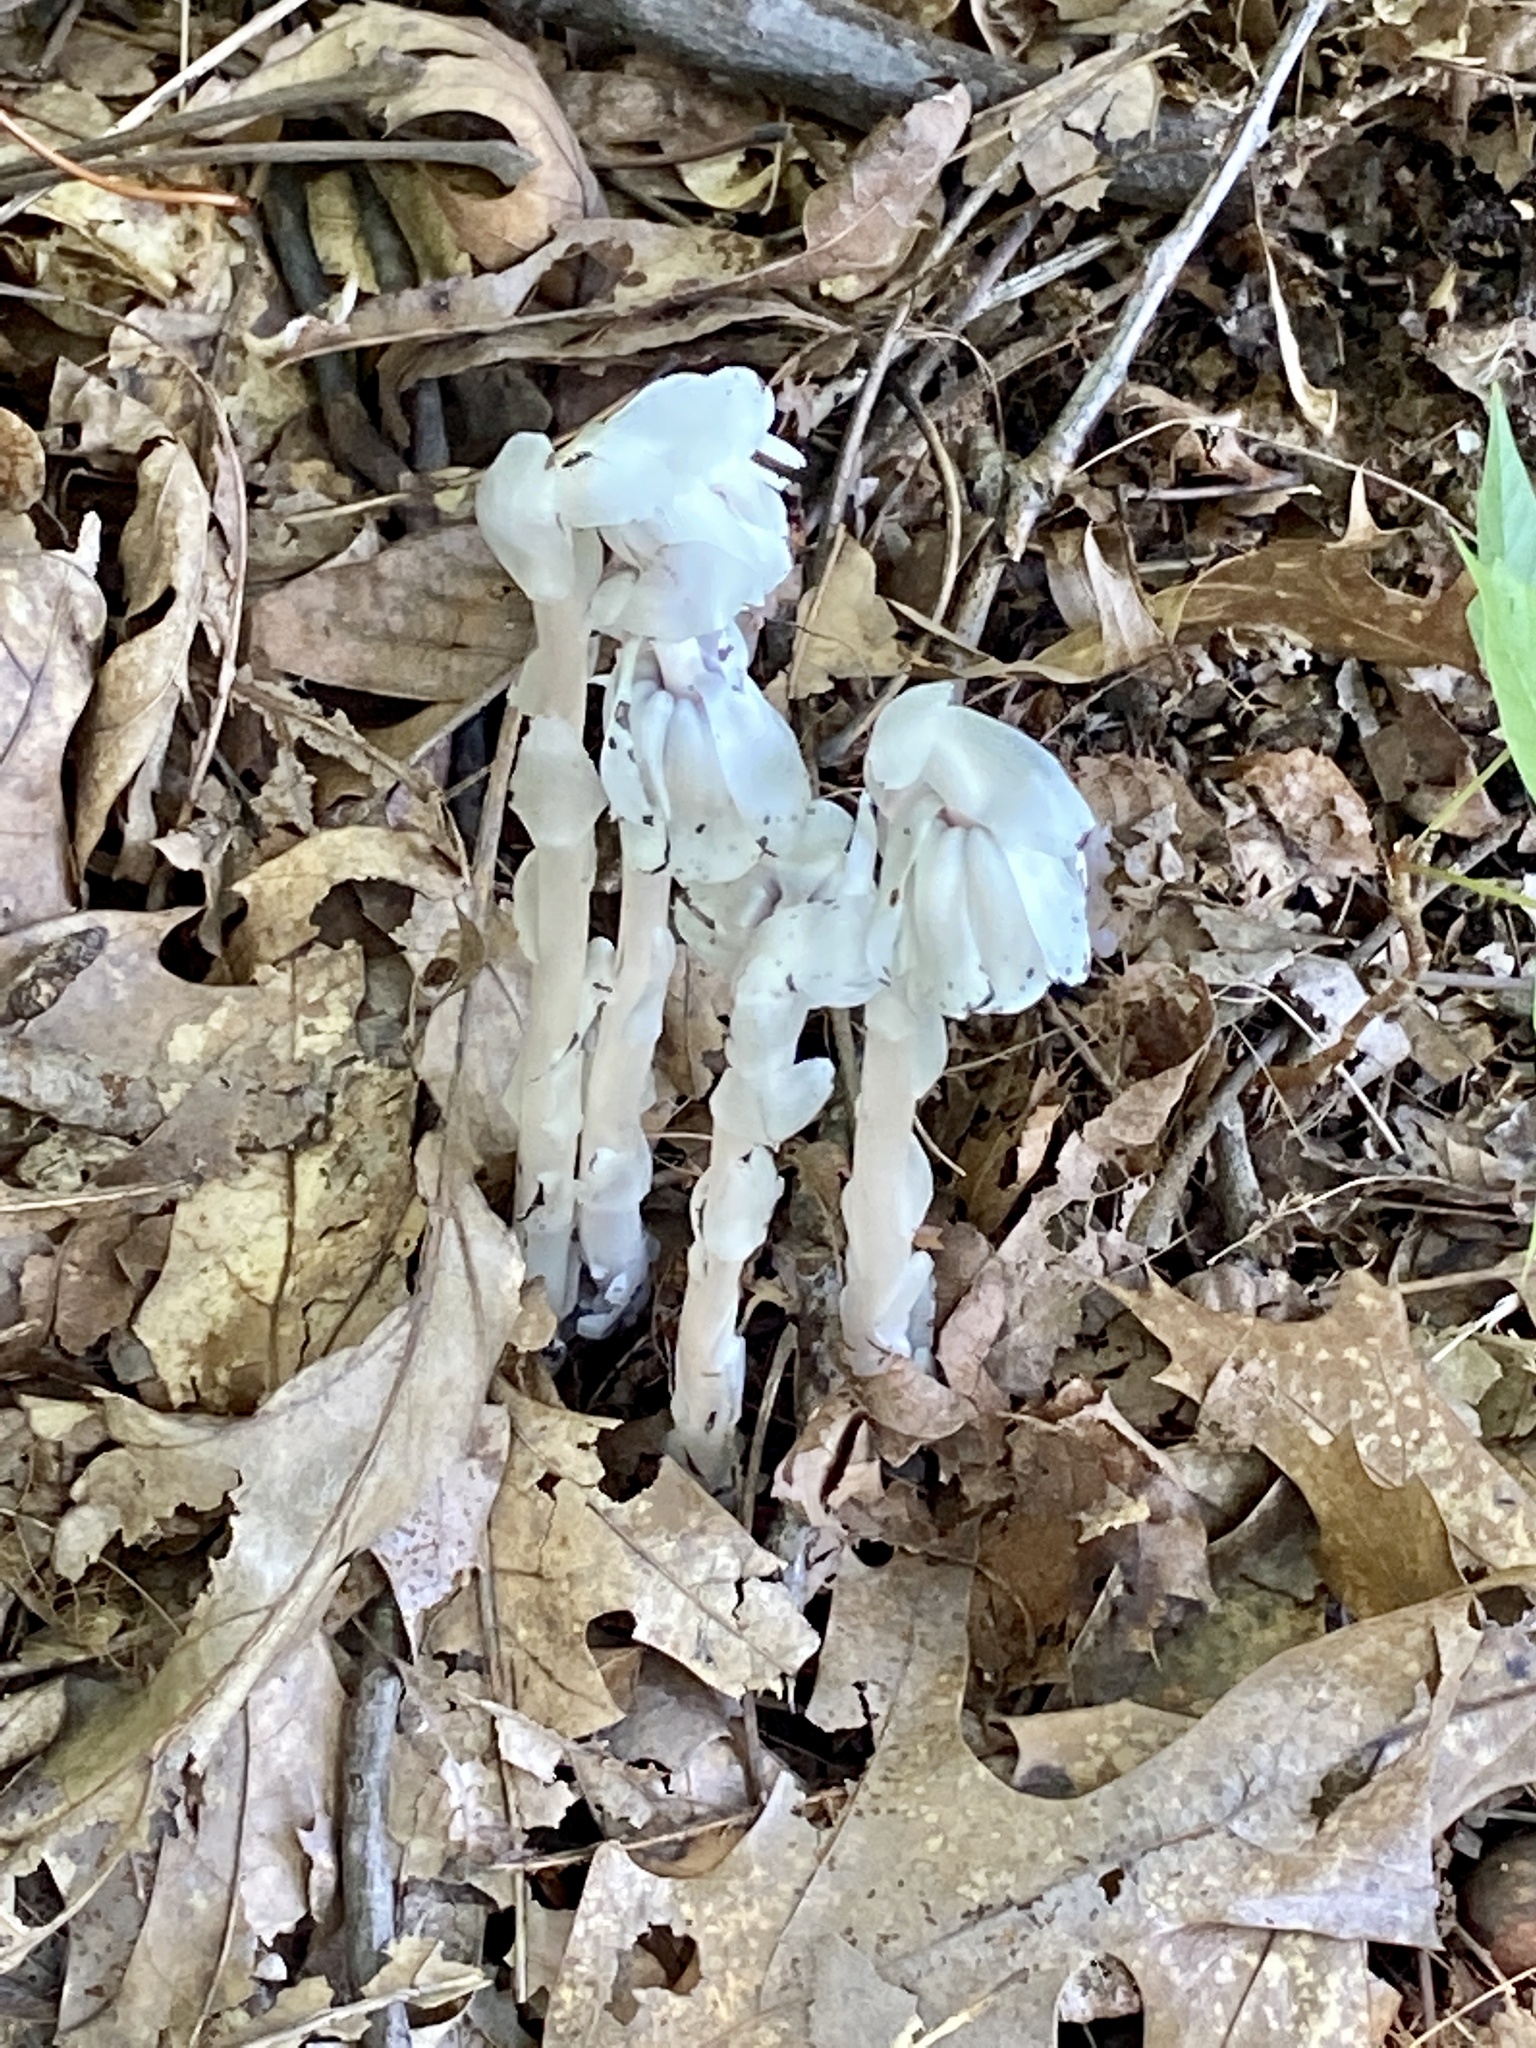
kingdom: Plantae
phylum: Tracheophyta
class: Magnoliopsida
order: Ericales
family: Ericaceae
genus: Monotropa
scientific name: Monotropa uniflora
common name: Convulsion root
